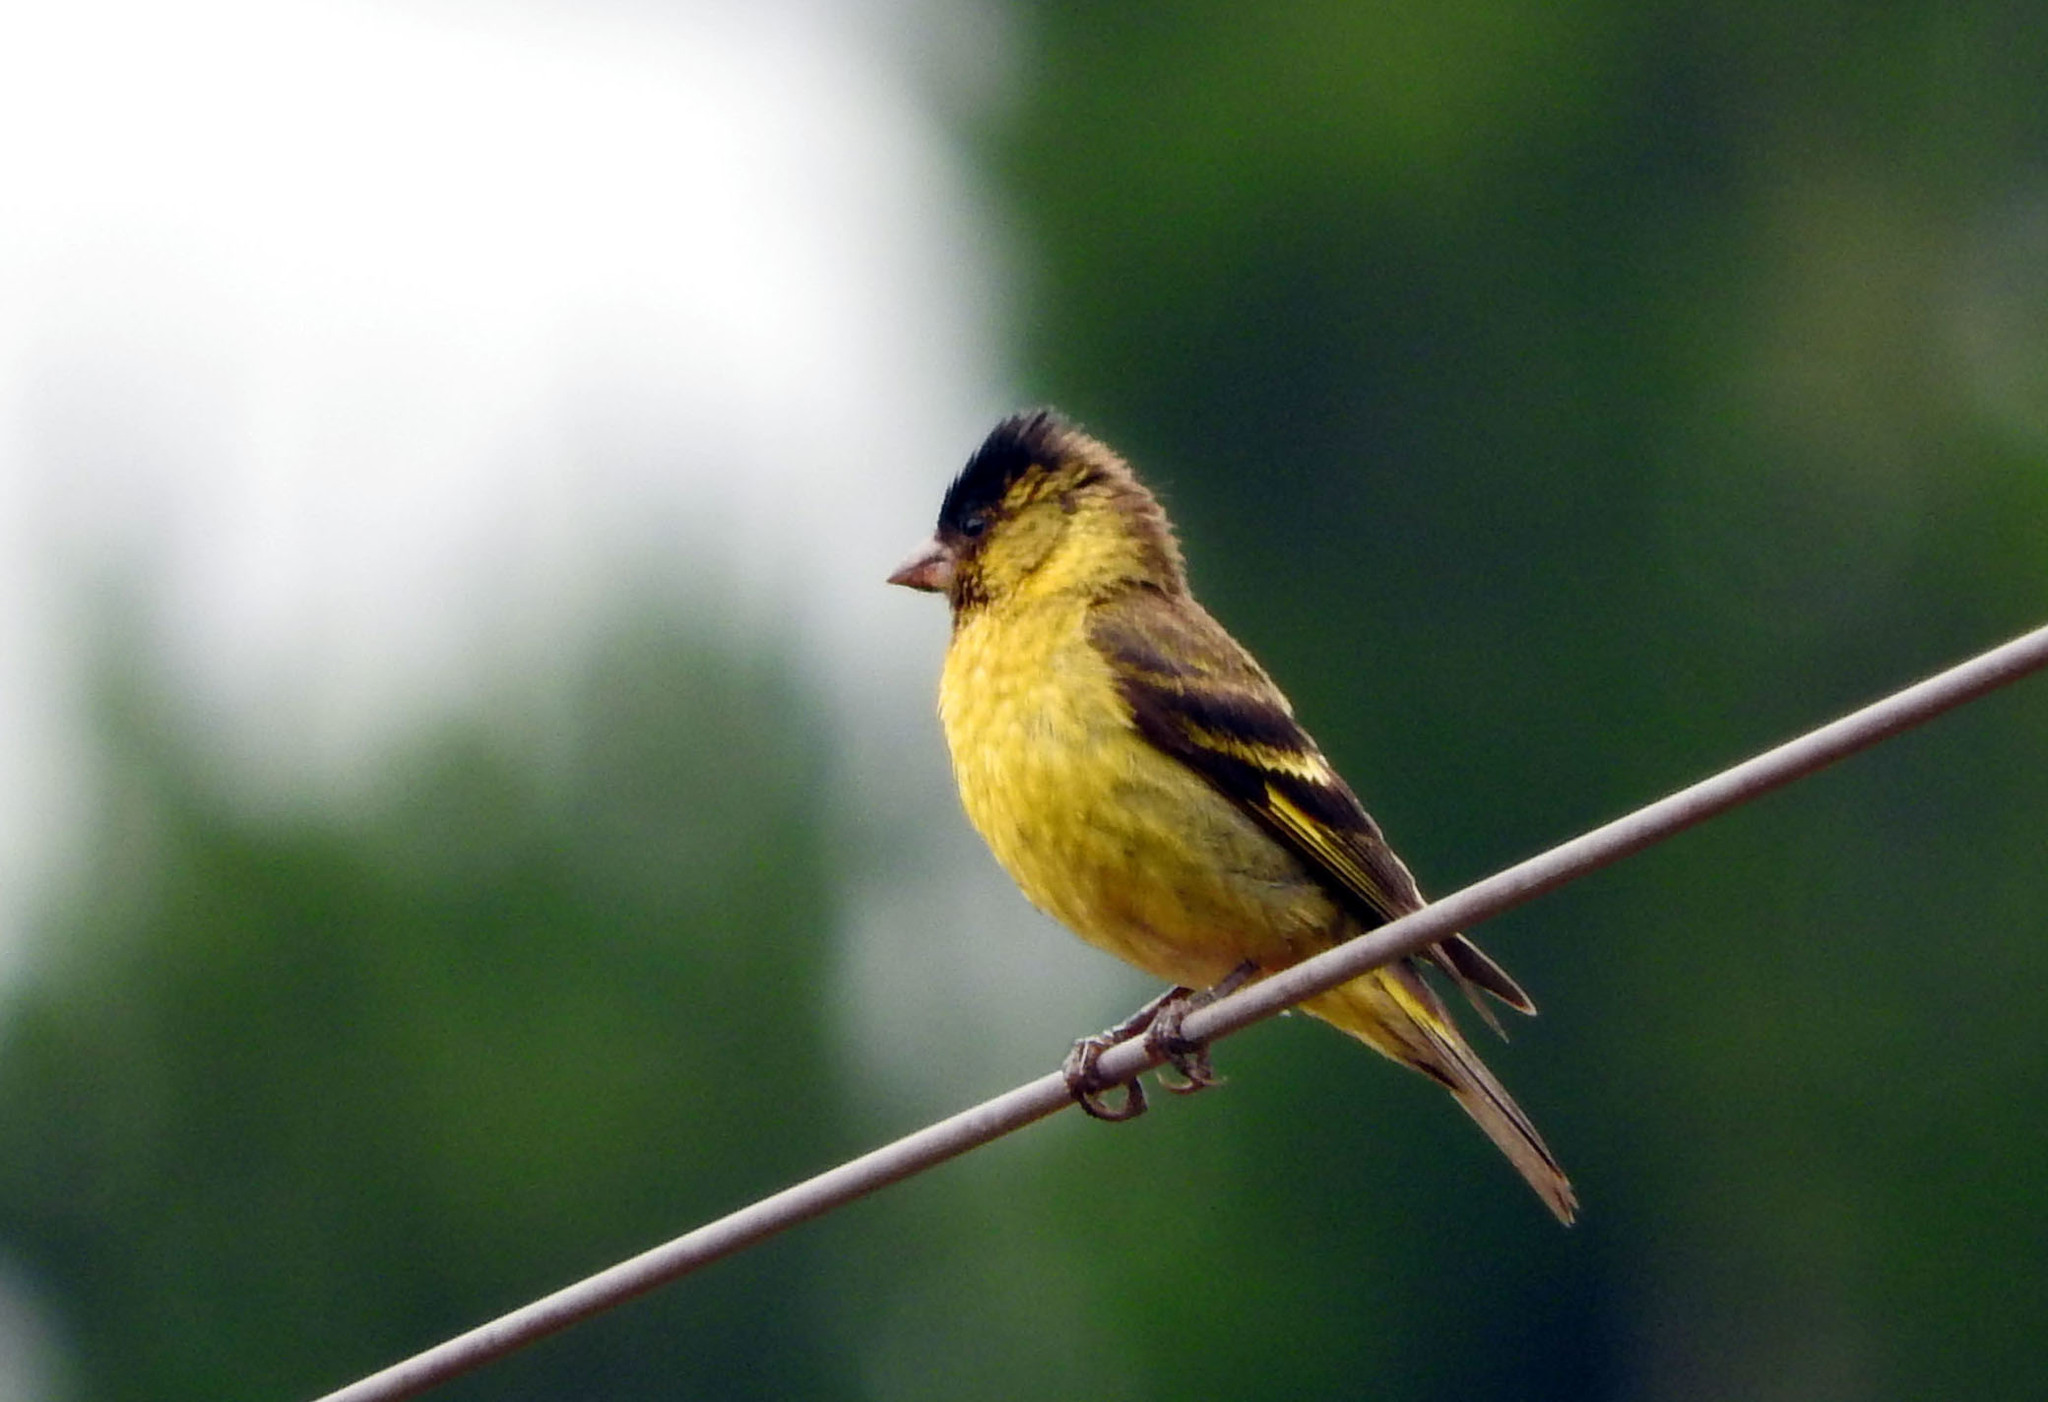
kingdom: Animalia
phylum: Chordata
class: Aves
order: Passeriformes
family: Fringillidae
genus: Spinus
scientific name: Spinus barbatus
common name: Black-chinned siskin
